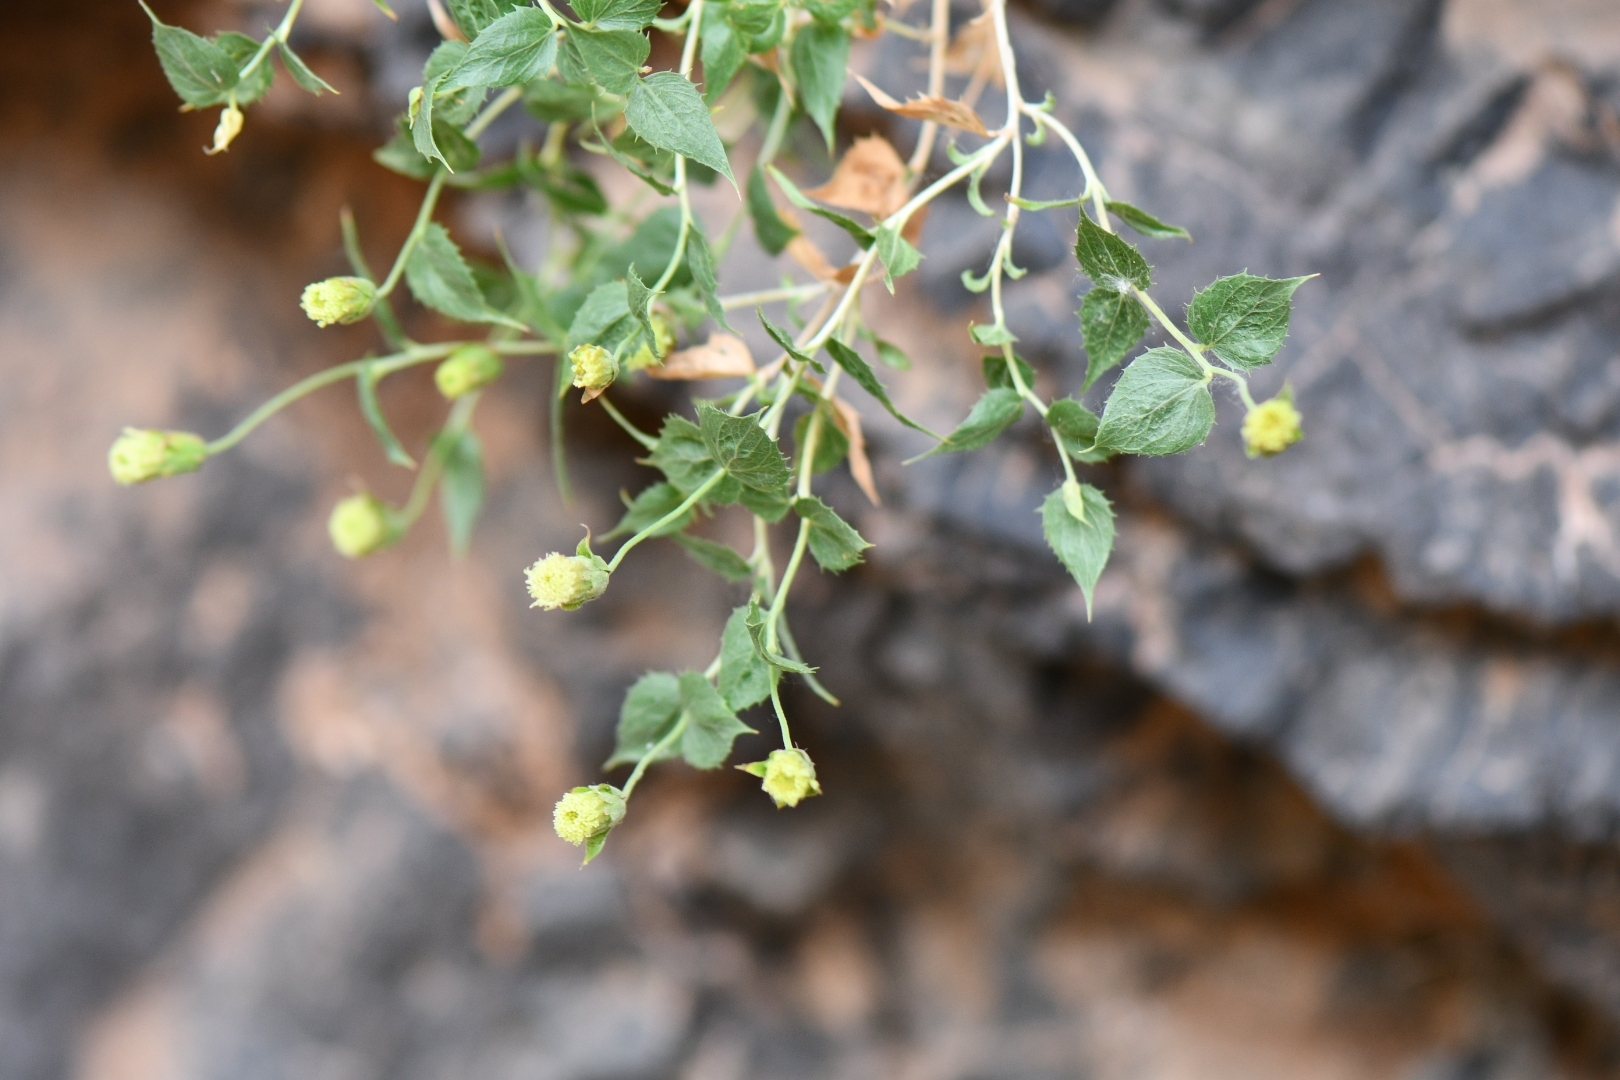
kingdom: Plantae
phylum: Tracheophyta
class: Magnoliopsida
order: Asterales
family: Asteraceae
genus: Brickellia
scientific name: Brickellia atractyloides
